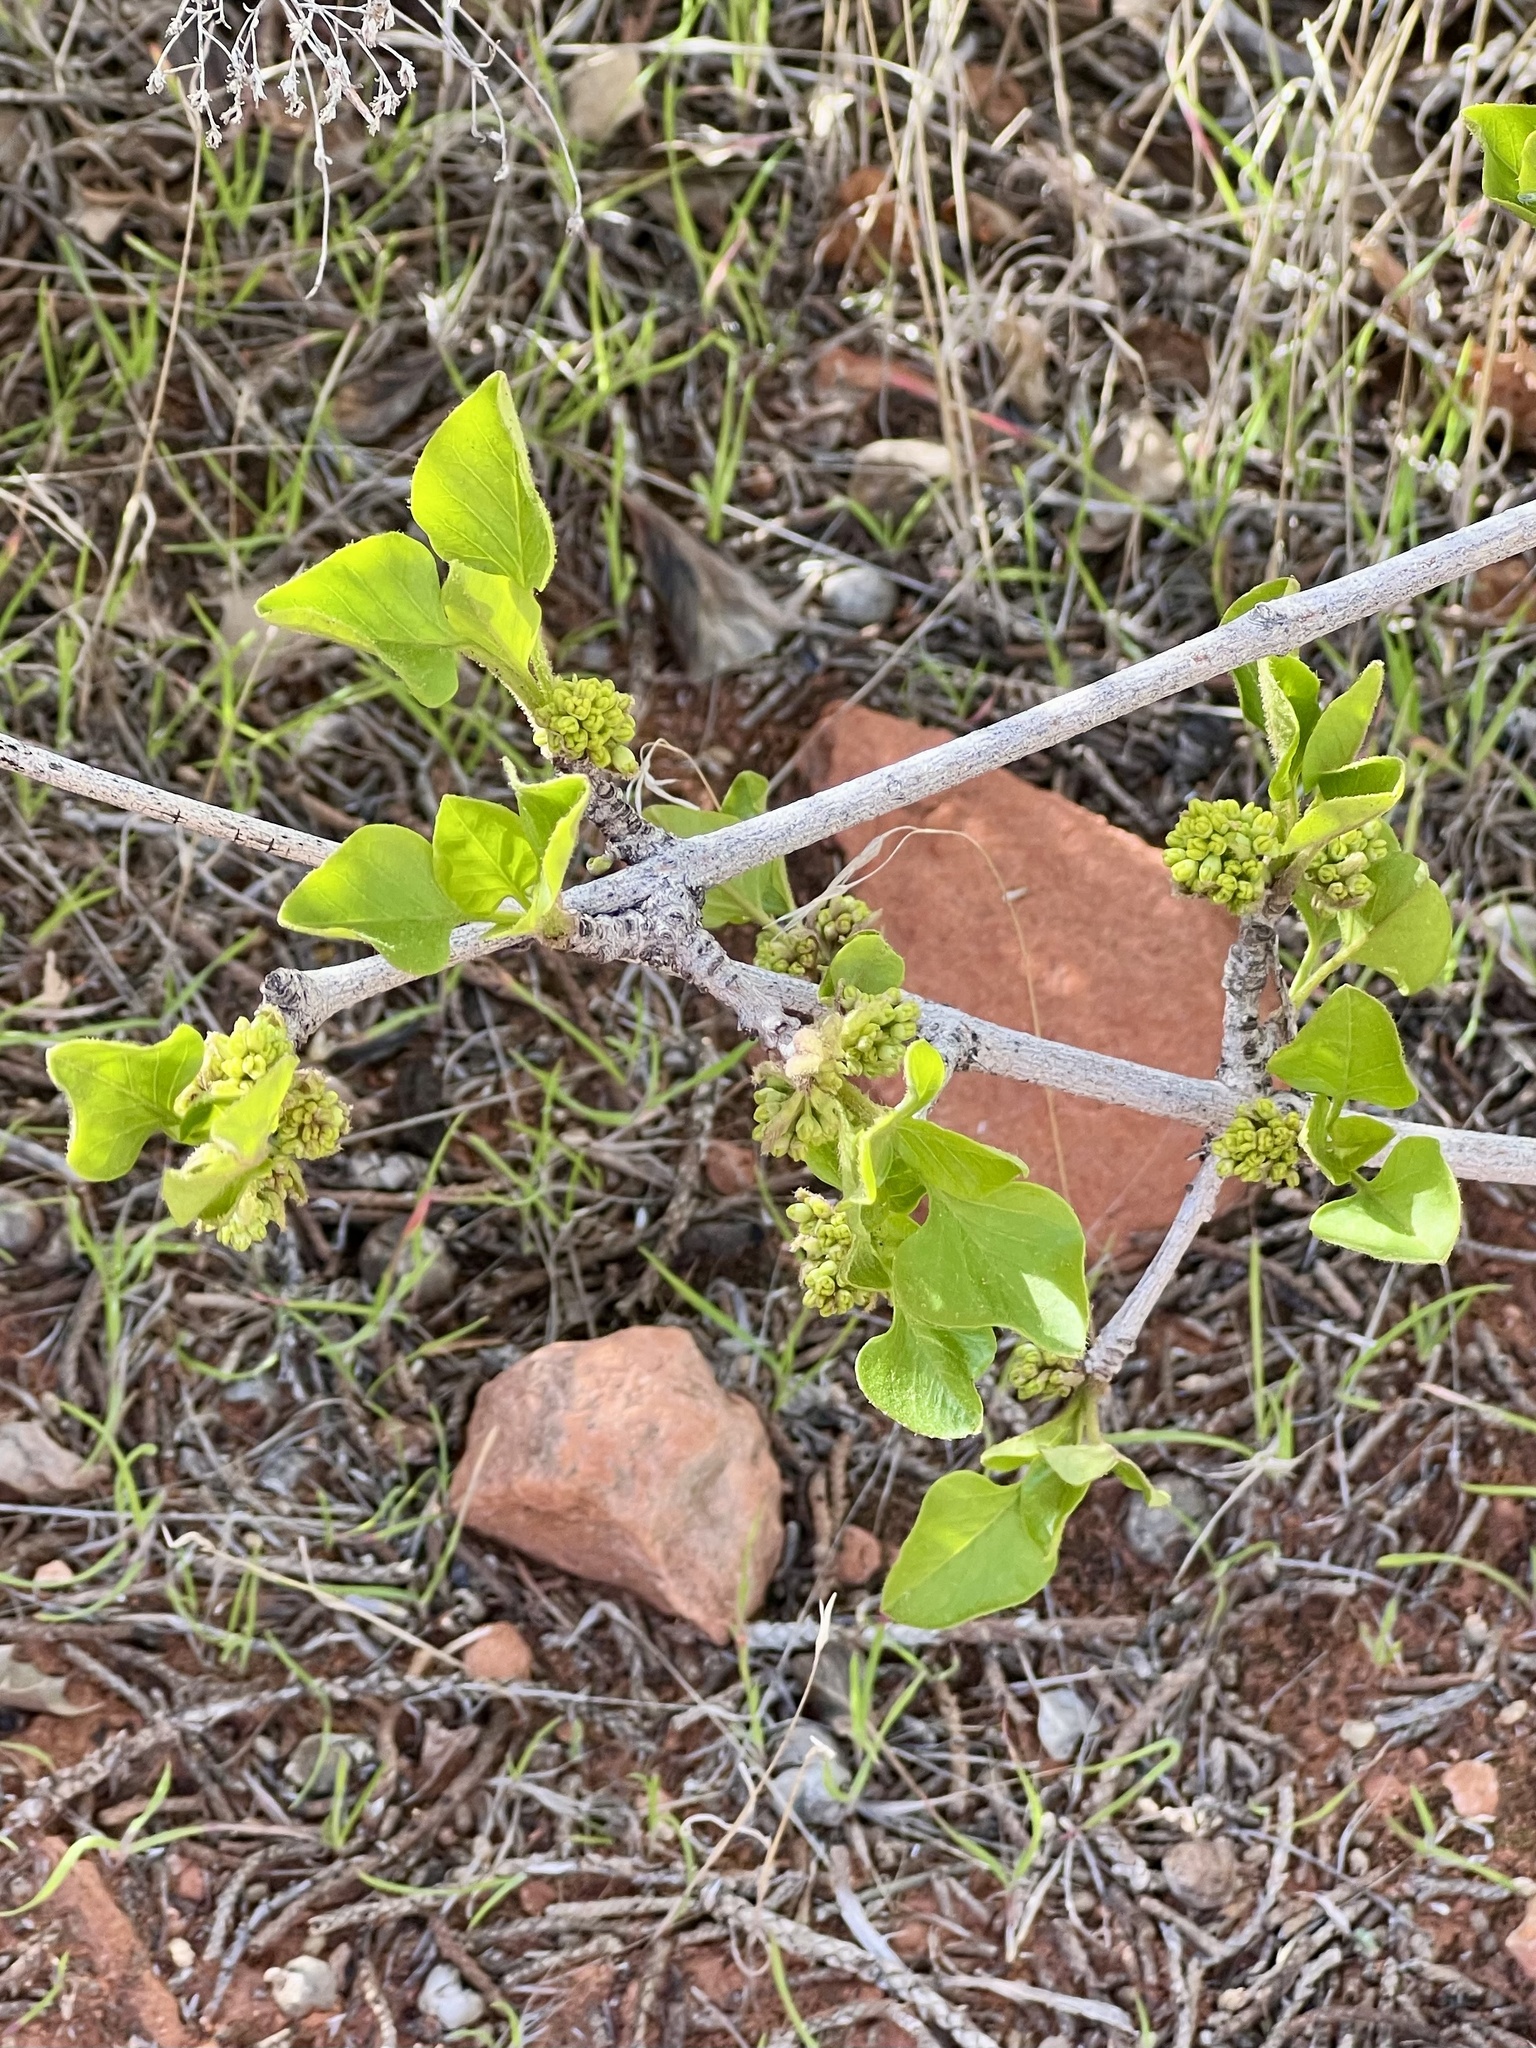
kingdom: Plantae
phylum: Tracheophyta
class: Magnoliopsida
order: Lamiales
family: Oleaceae
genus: Fraxinus
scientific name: Fraxinus anomala
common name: Utah ash
